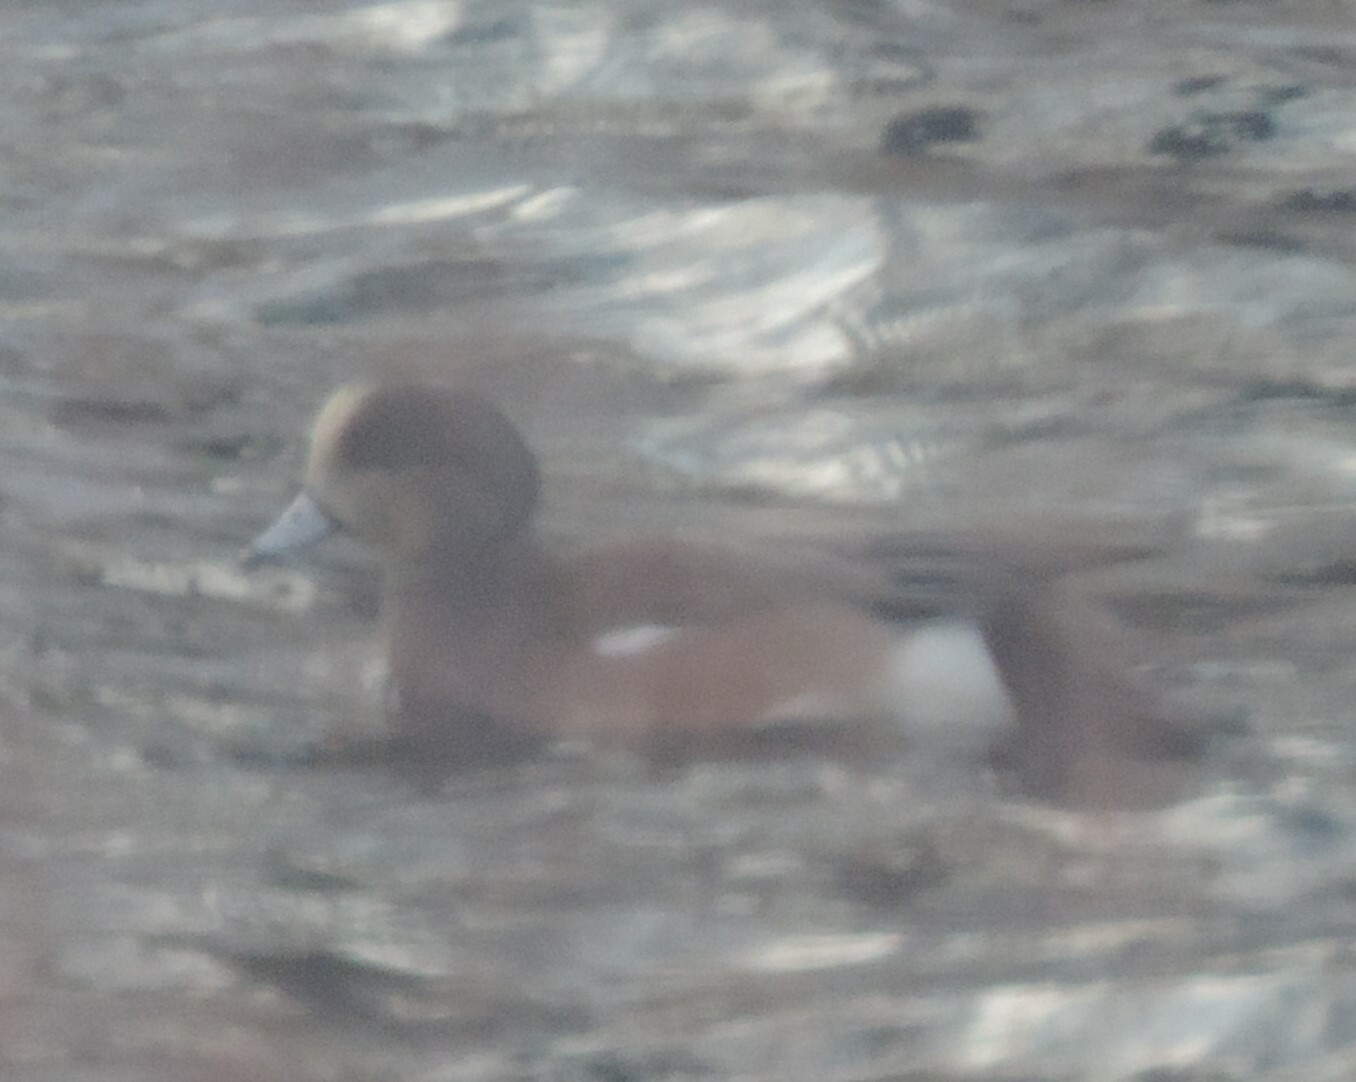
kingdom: Animalia
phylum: Chordata
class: Aves
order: Anseriformes
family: Anatidae
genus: Mareca
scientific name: Mareca americana
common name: American wigeon
